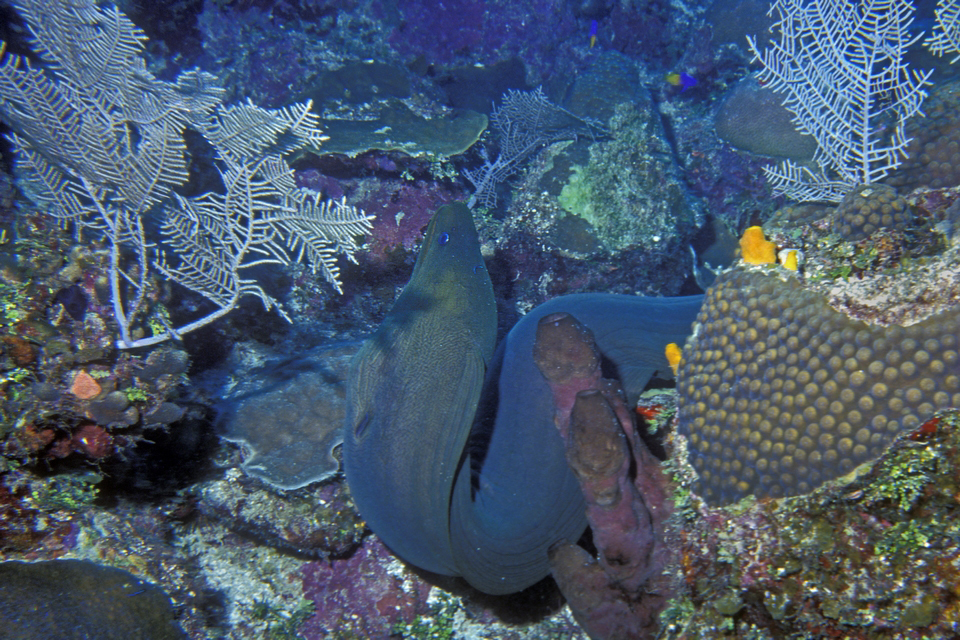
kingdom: Animalia
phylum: Chordata
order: Anguilliformes
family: Muraenidae
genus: Gymnothorax
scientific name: Gymnothorax funebris
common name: Green moray
